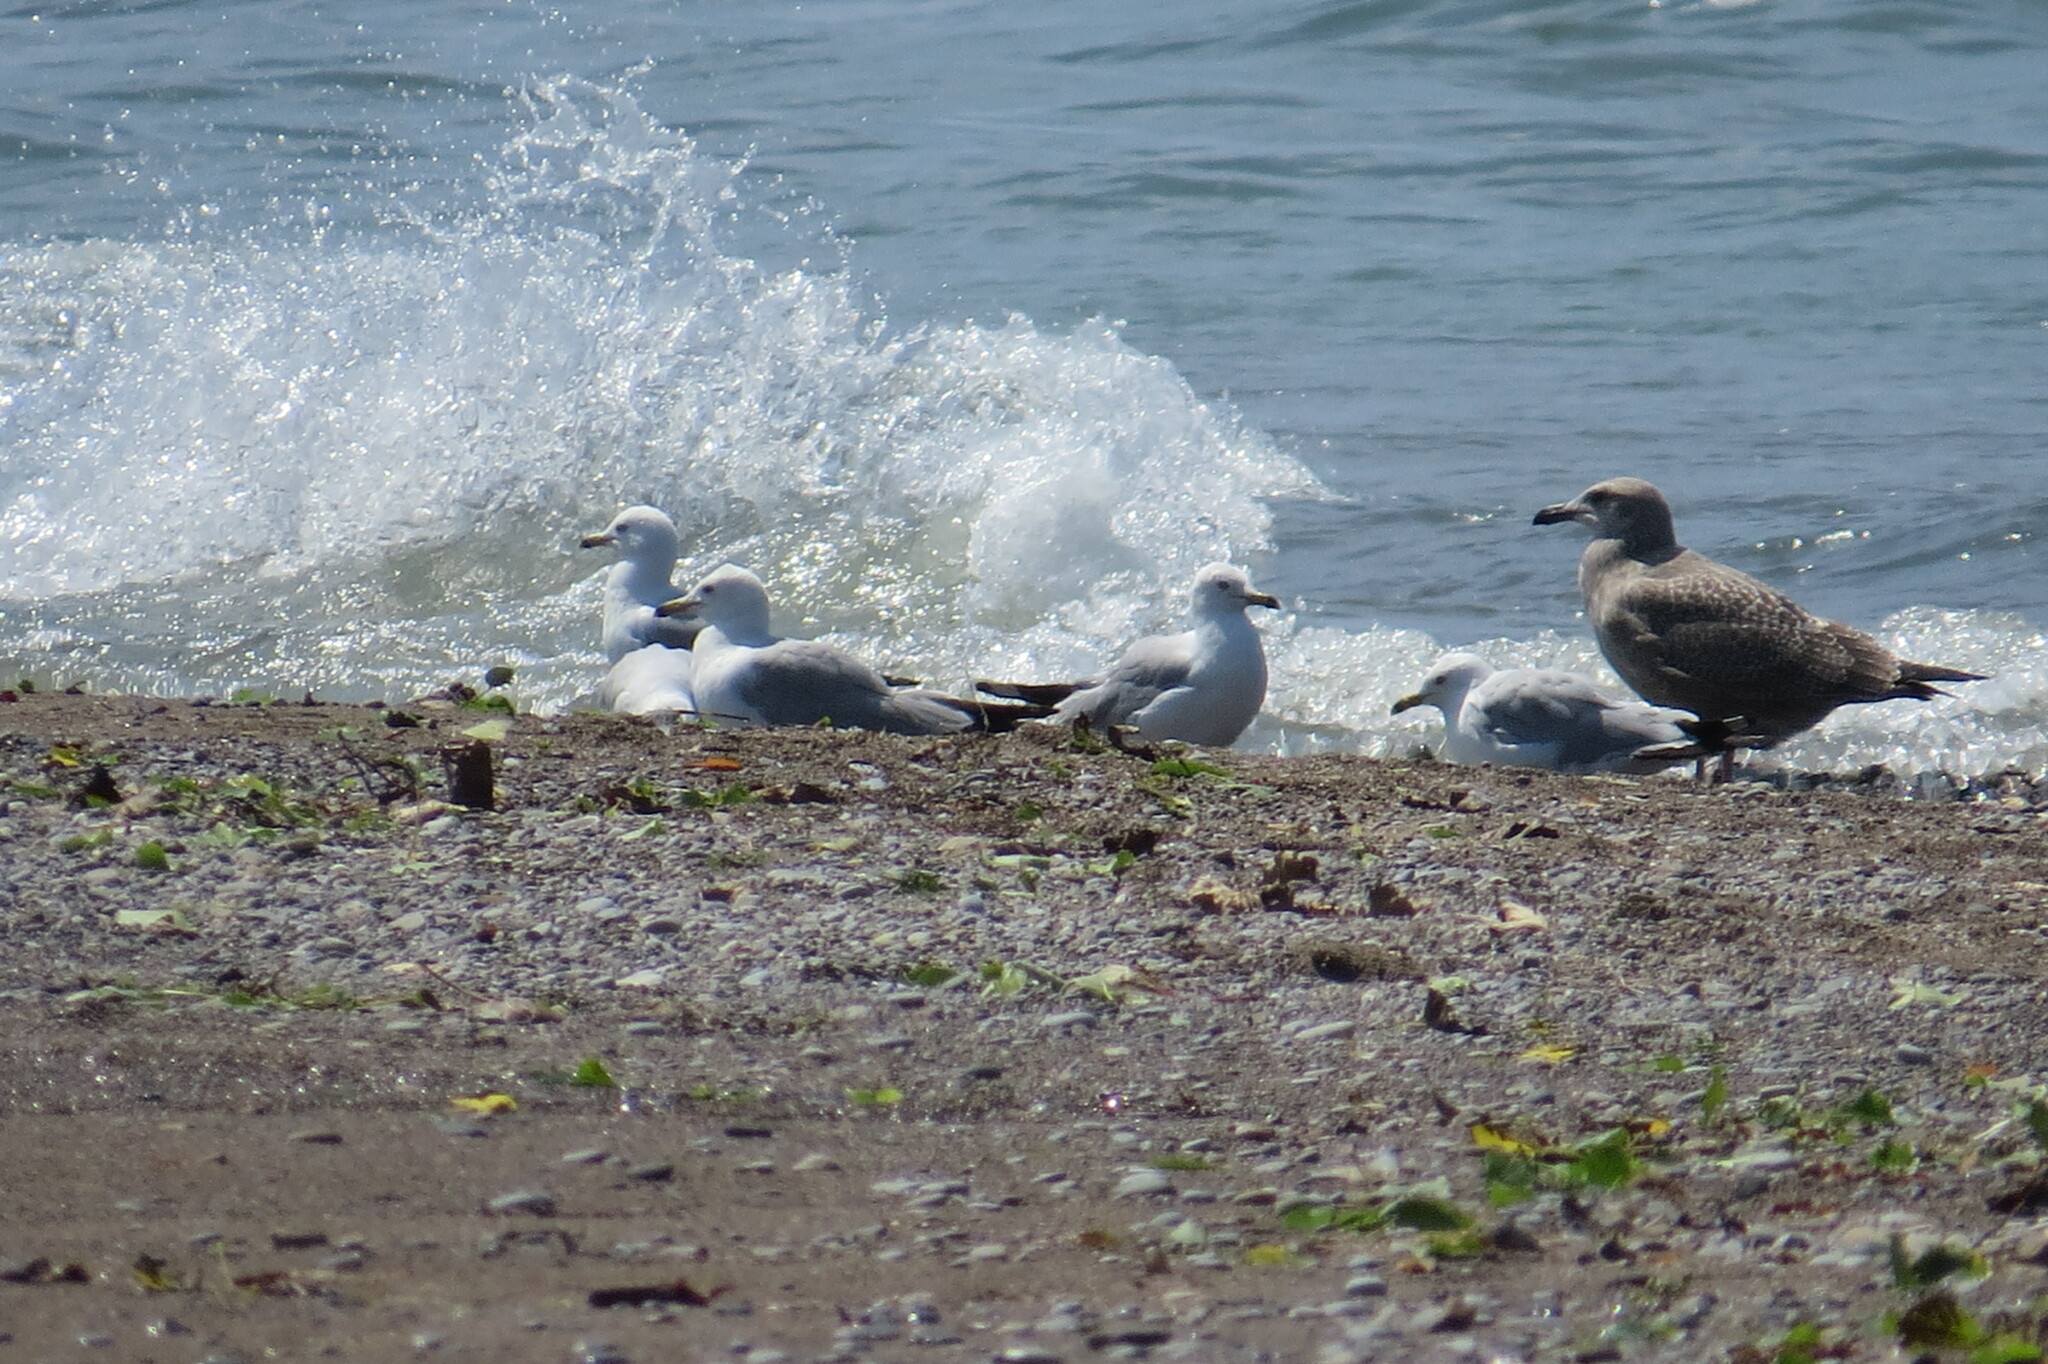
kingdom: Animalia
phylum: Chordata
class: Aves
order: Charadriiformes
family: Laridae
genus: Larus
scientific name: Larus delawarensis
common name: Ring-billed gull
